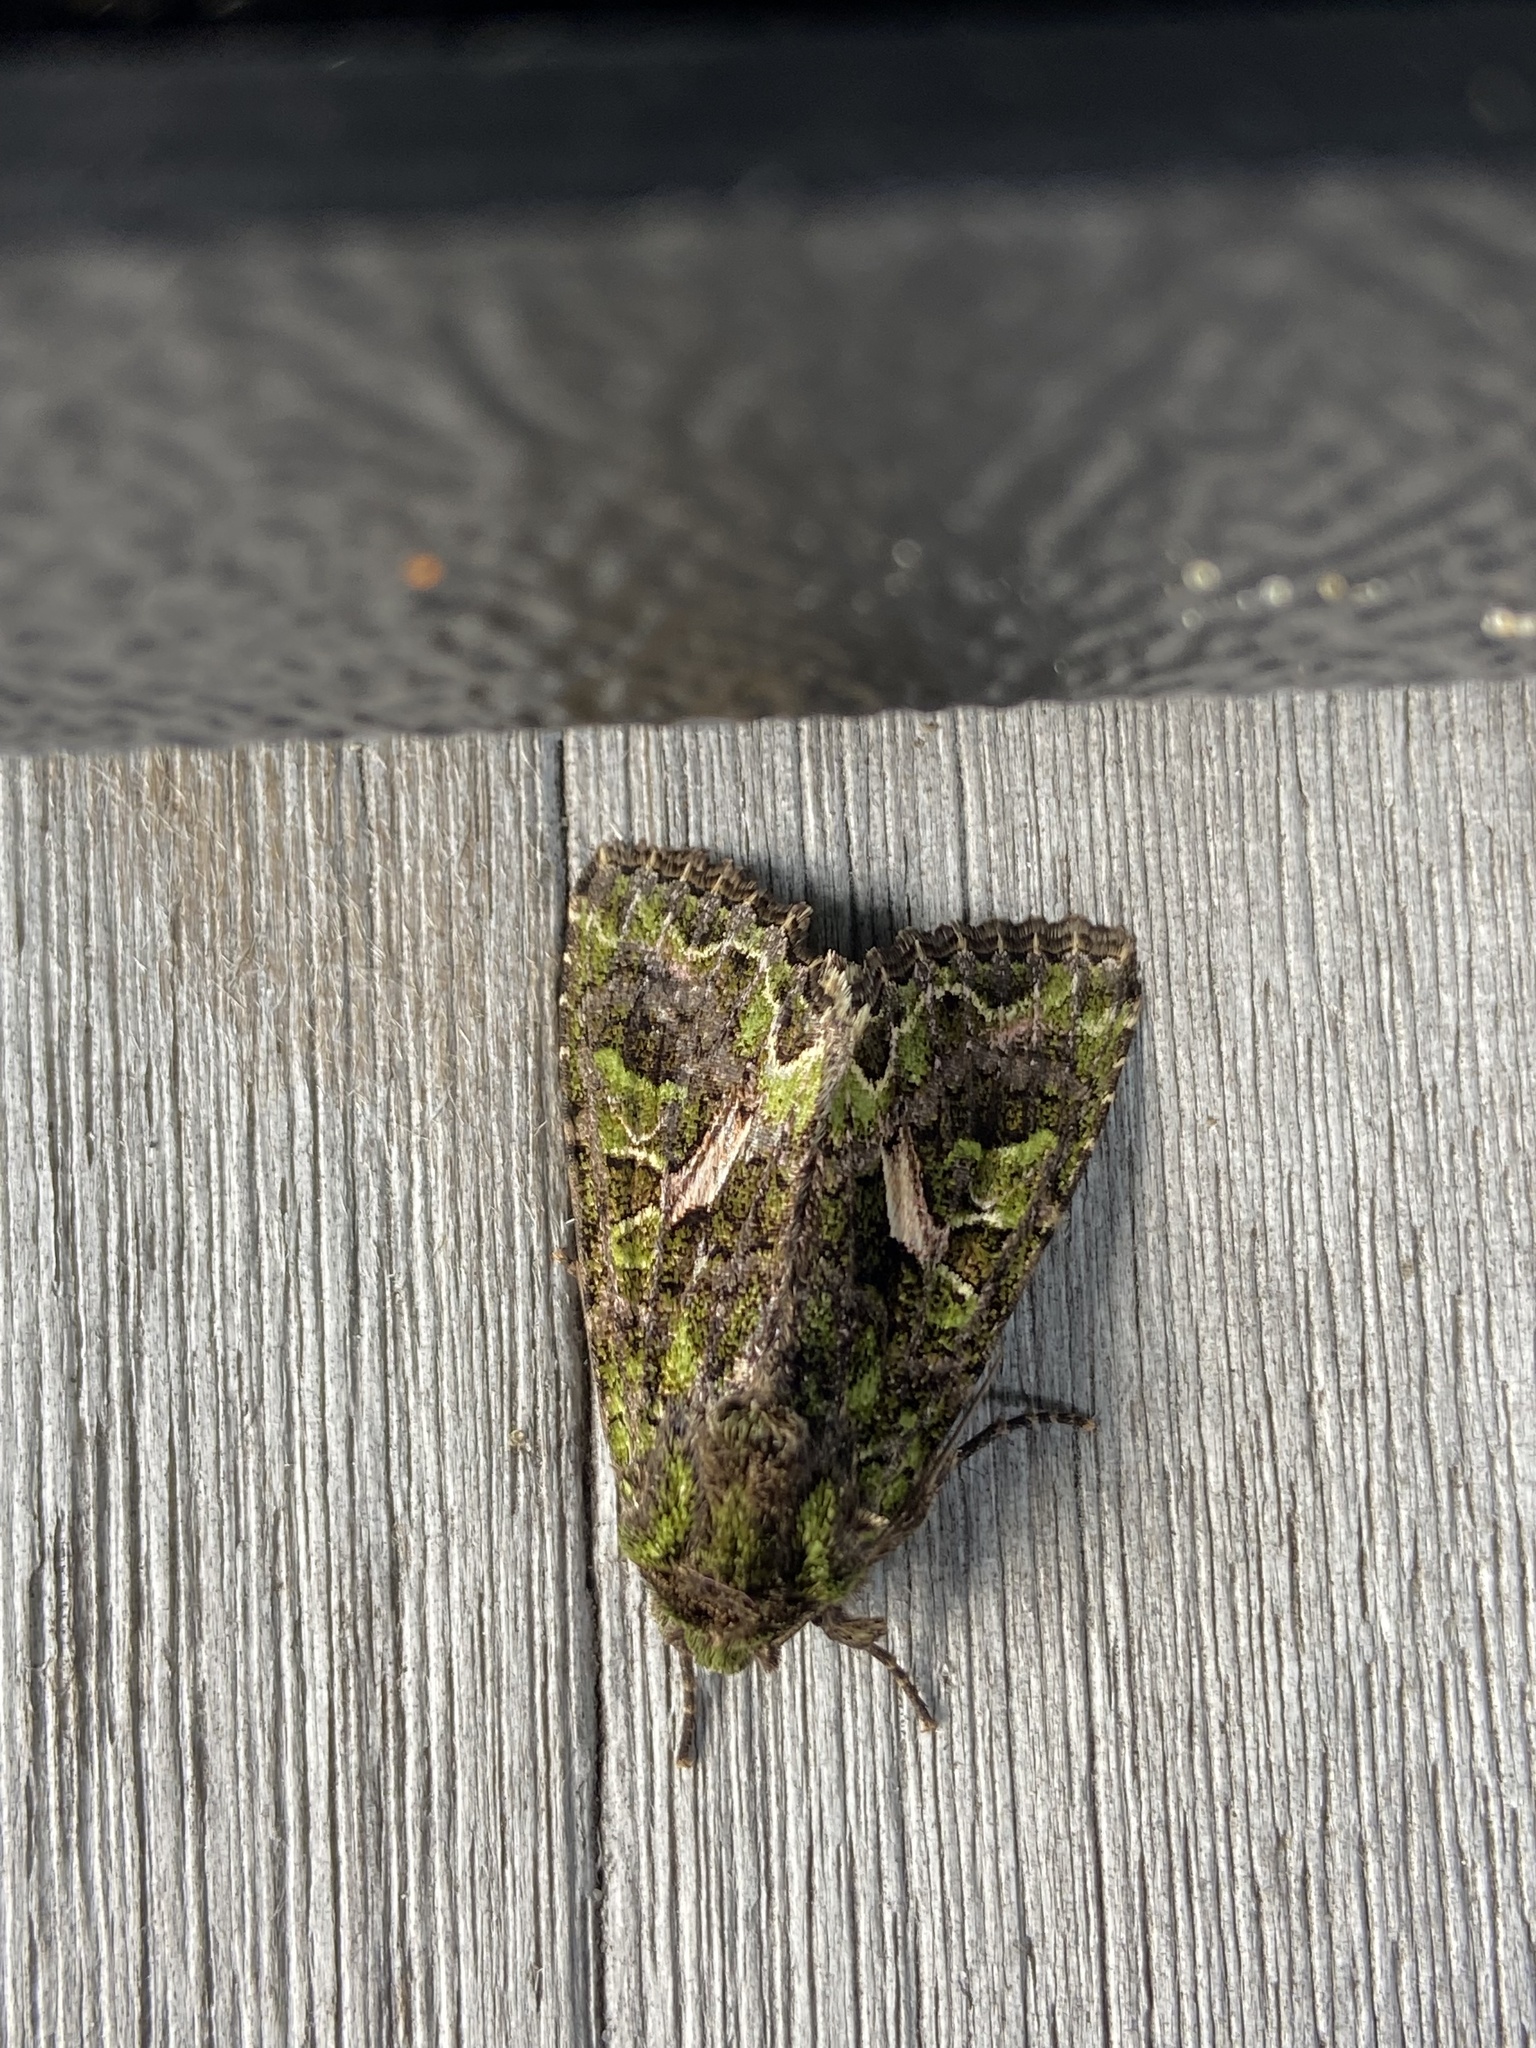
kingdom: Animalia
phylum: Arthropoda
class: Insecta
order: Lepidoptera
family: Noctuidae
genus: Trachea
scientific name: Trachea atriplicis
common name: Orache moth
